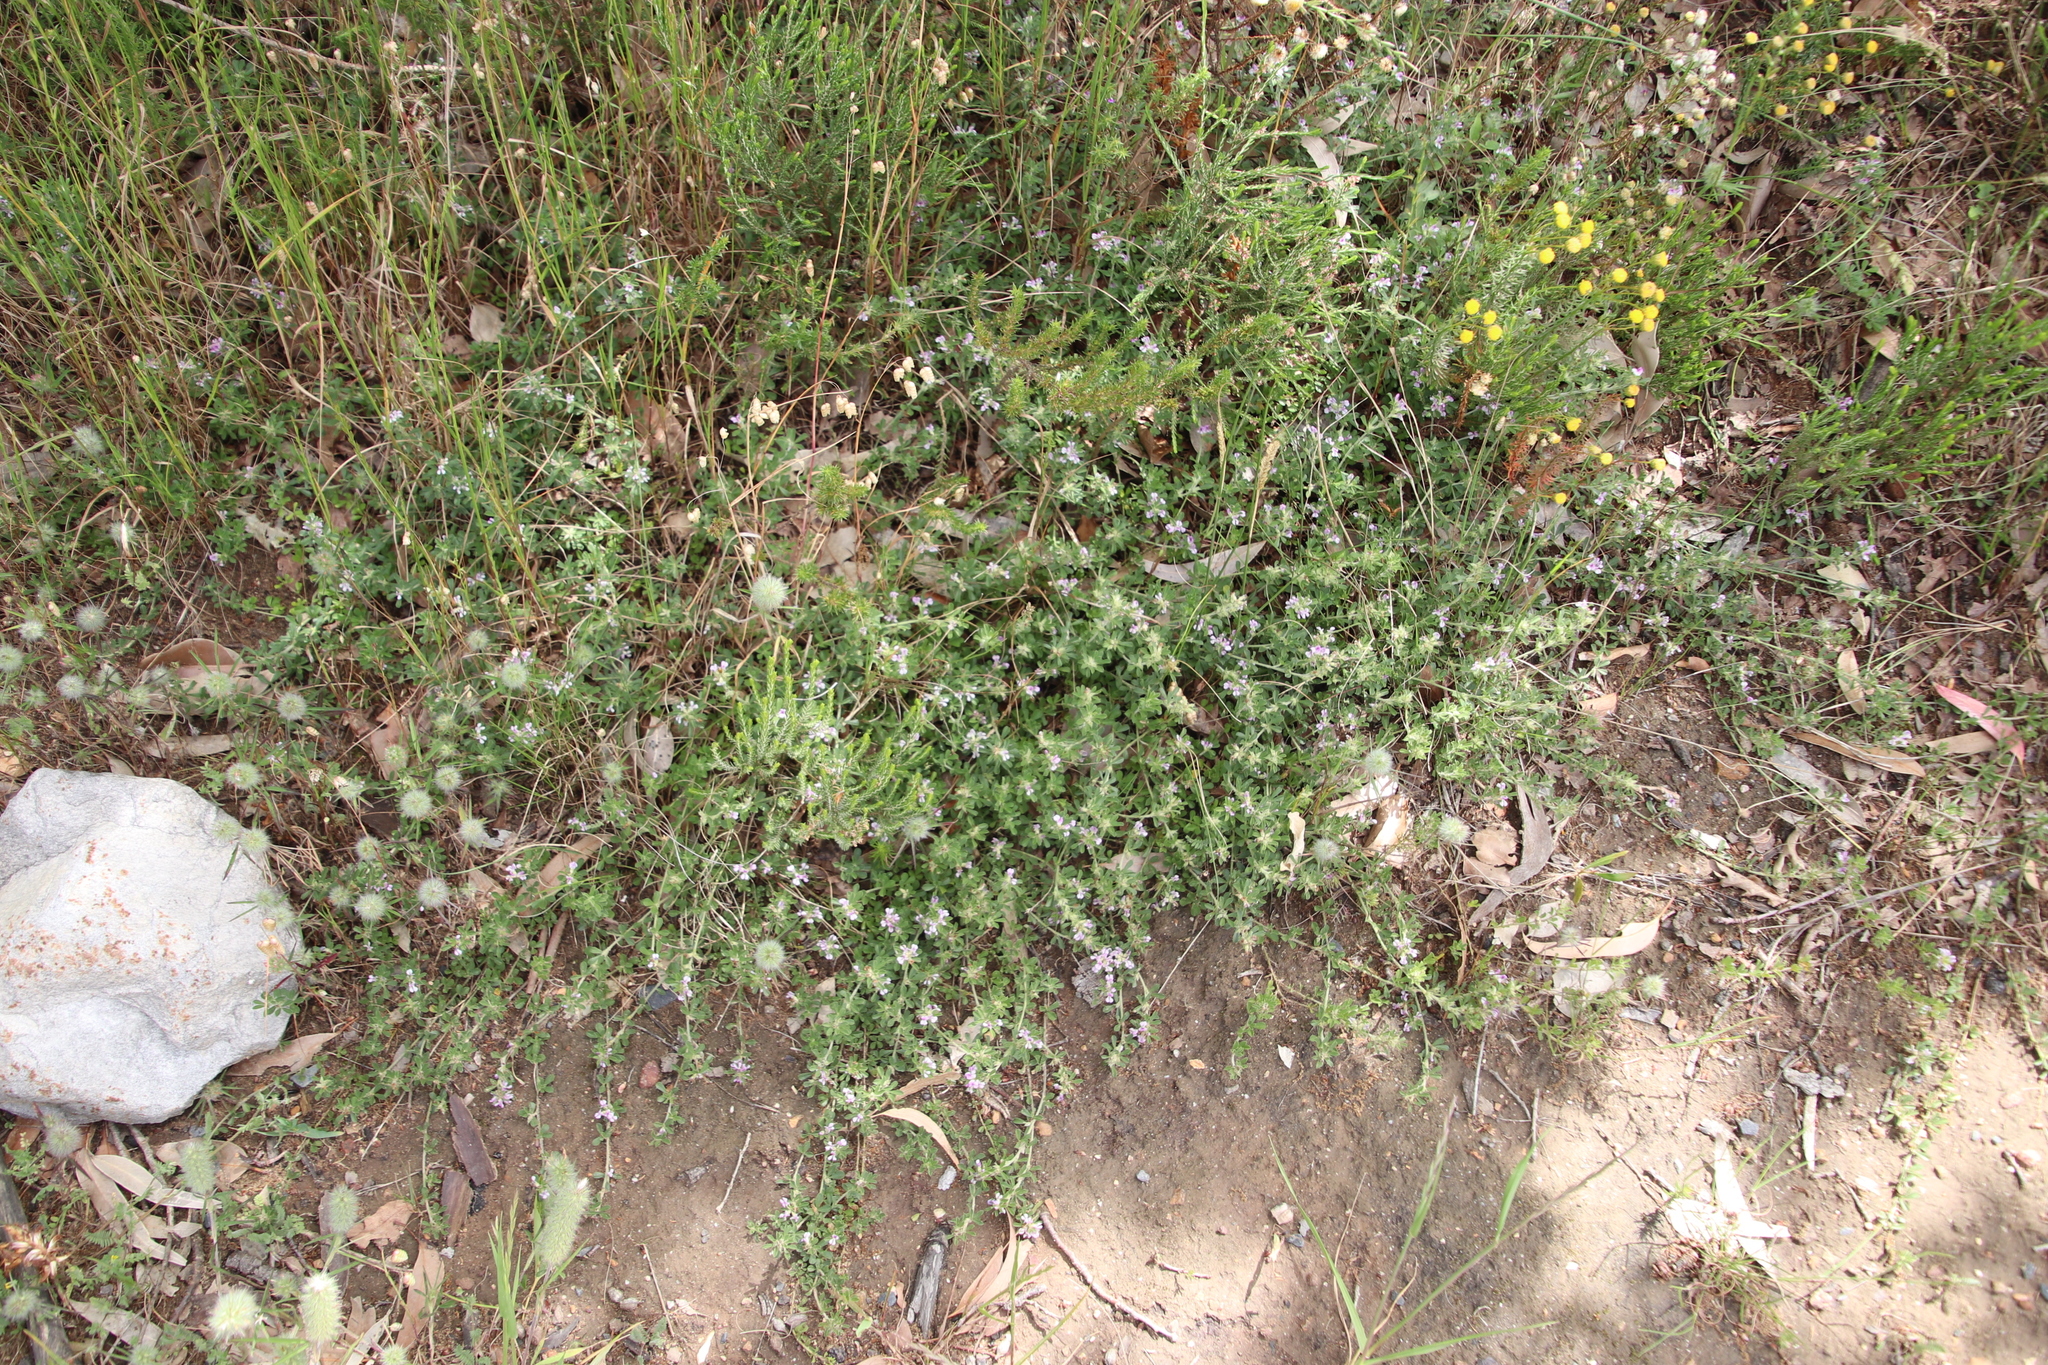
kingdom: Plantae
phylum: Tracheophyta
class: Magnoliopsida
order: Fabales
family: Fabaceae
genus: Psoralea
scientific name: Psoralea
